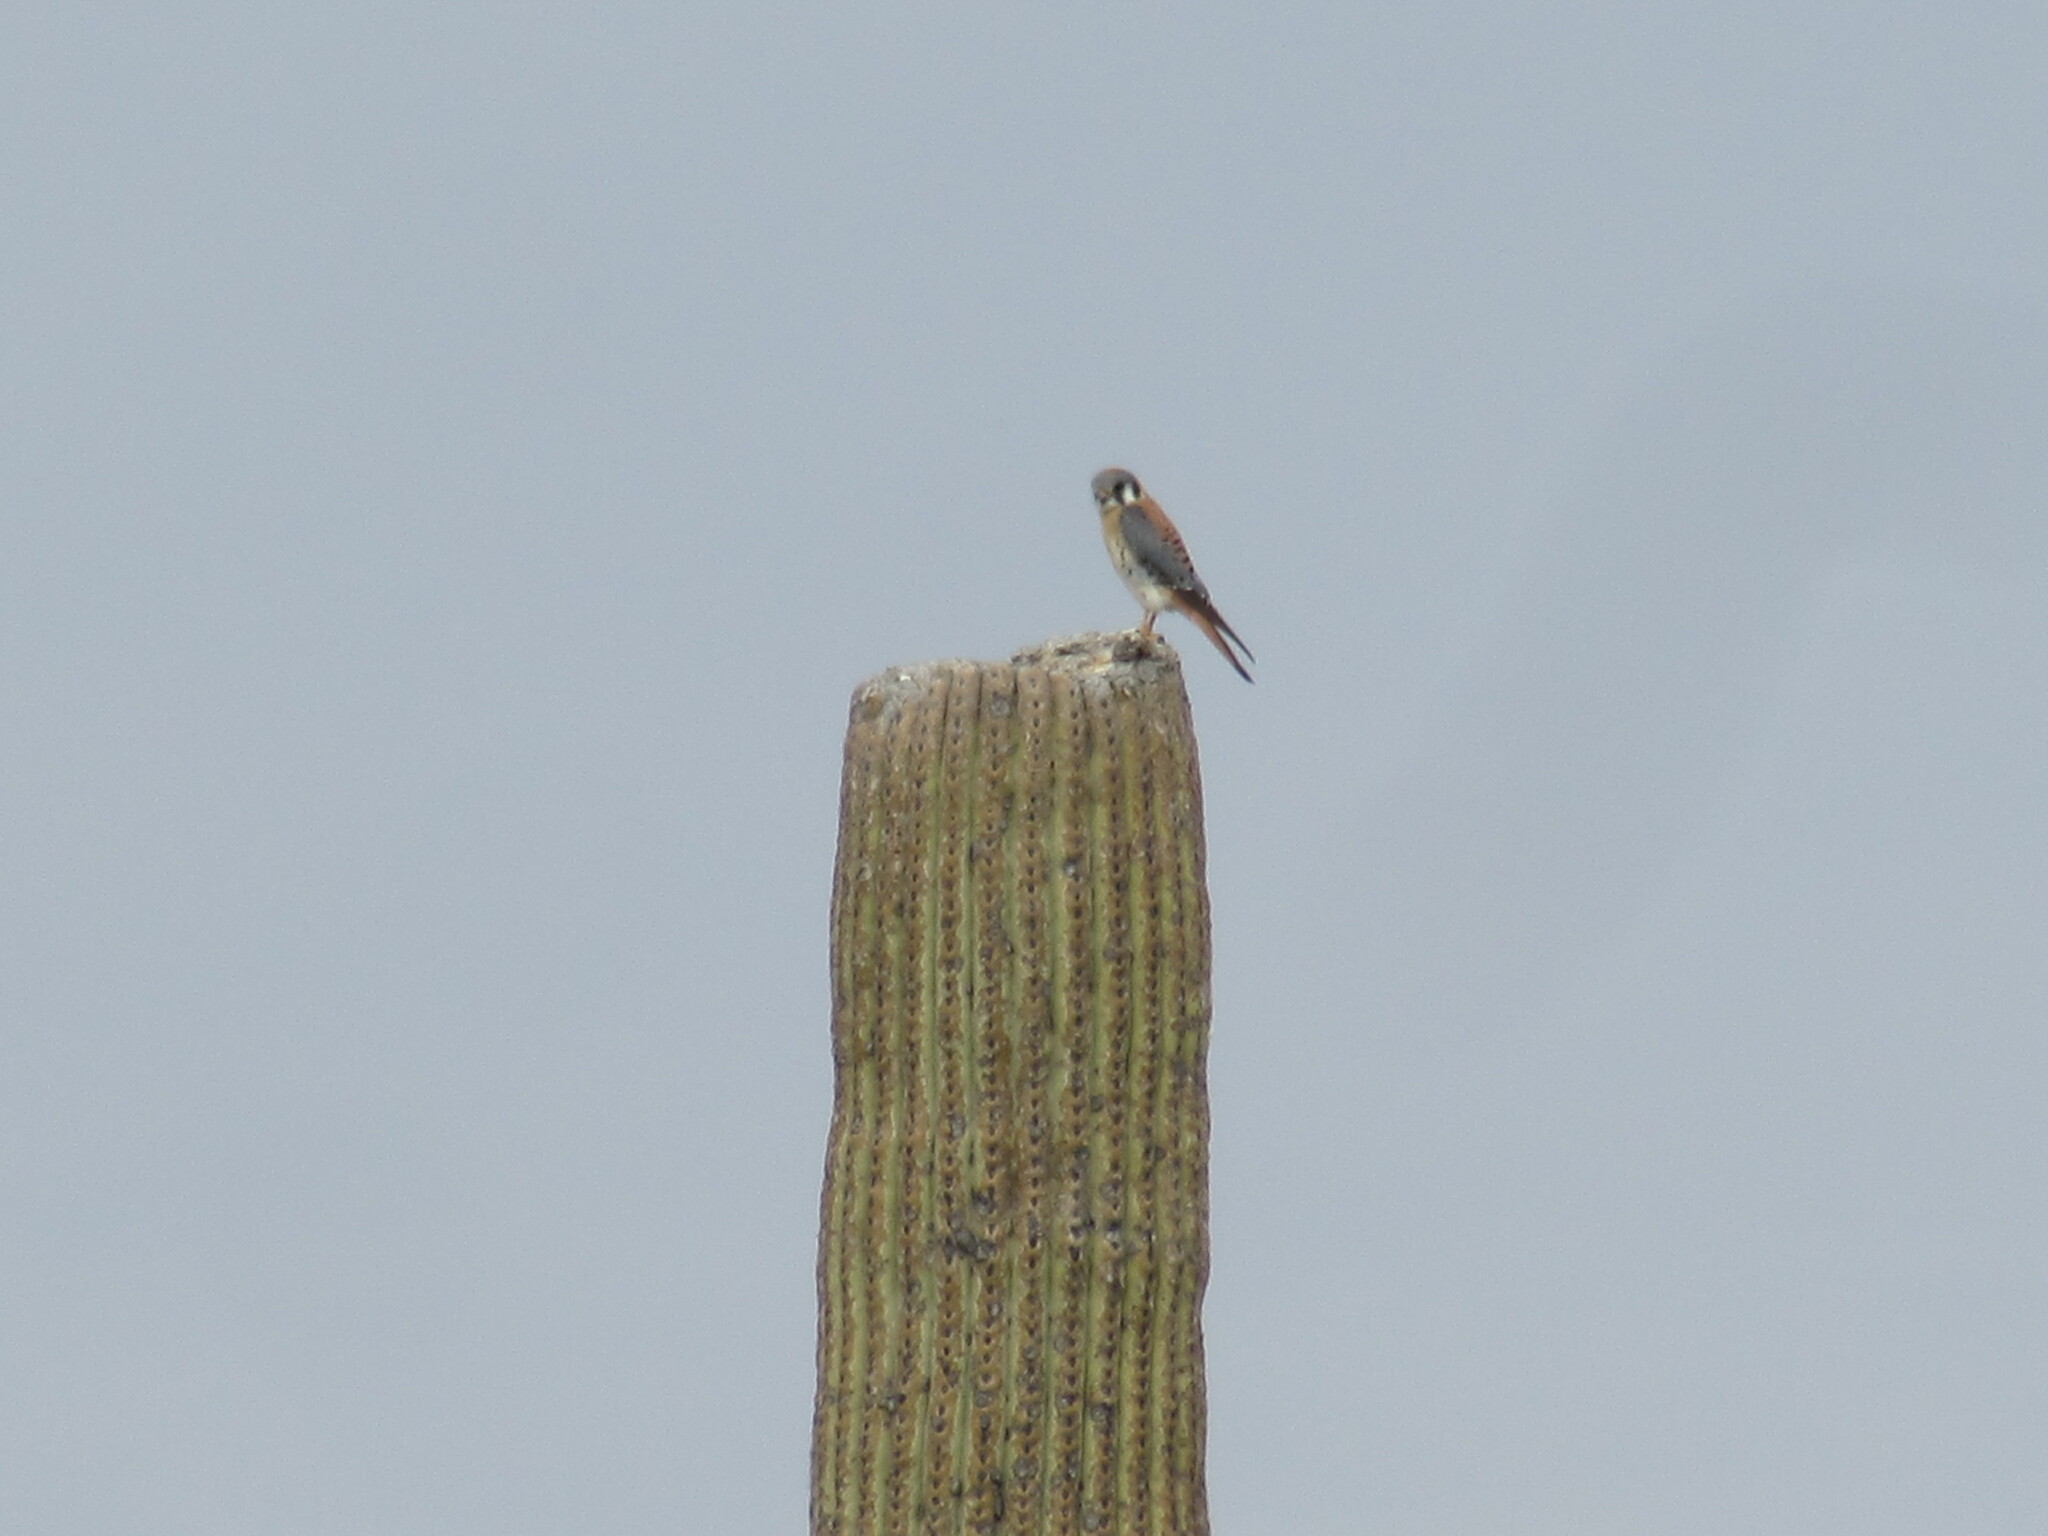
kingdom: Animalia
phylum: Chordata
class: Aves
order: Falconiformes
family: Falconidae
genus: Falco
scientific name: Falco sparverius
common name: American kestrel
